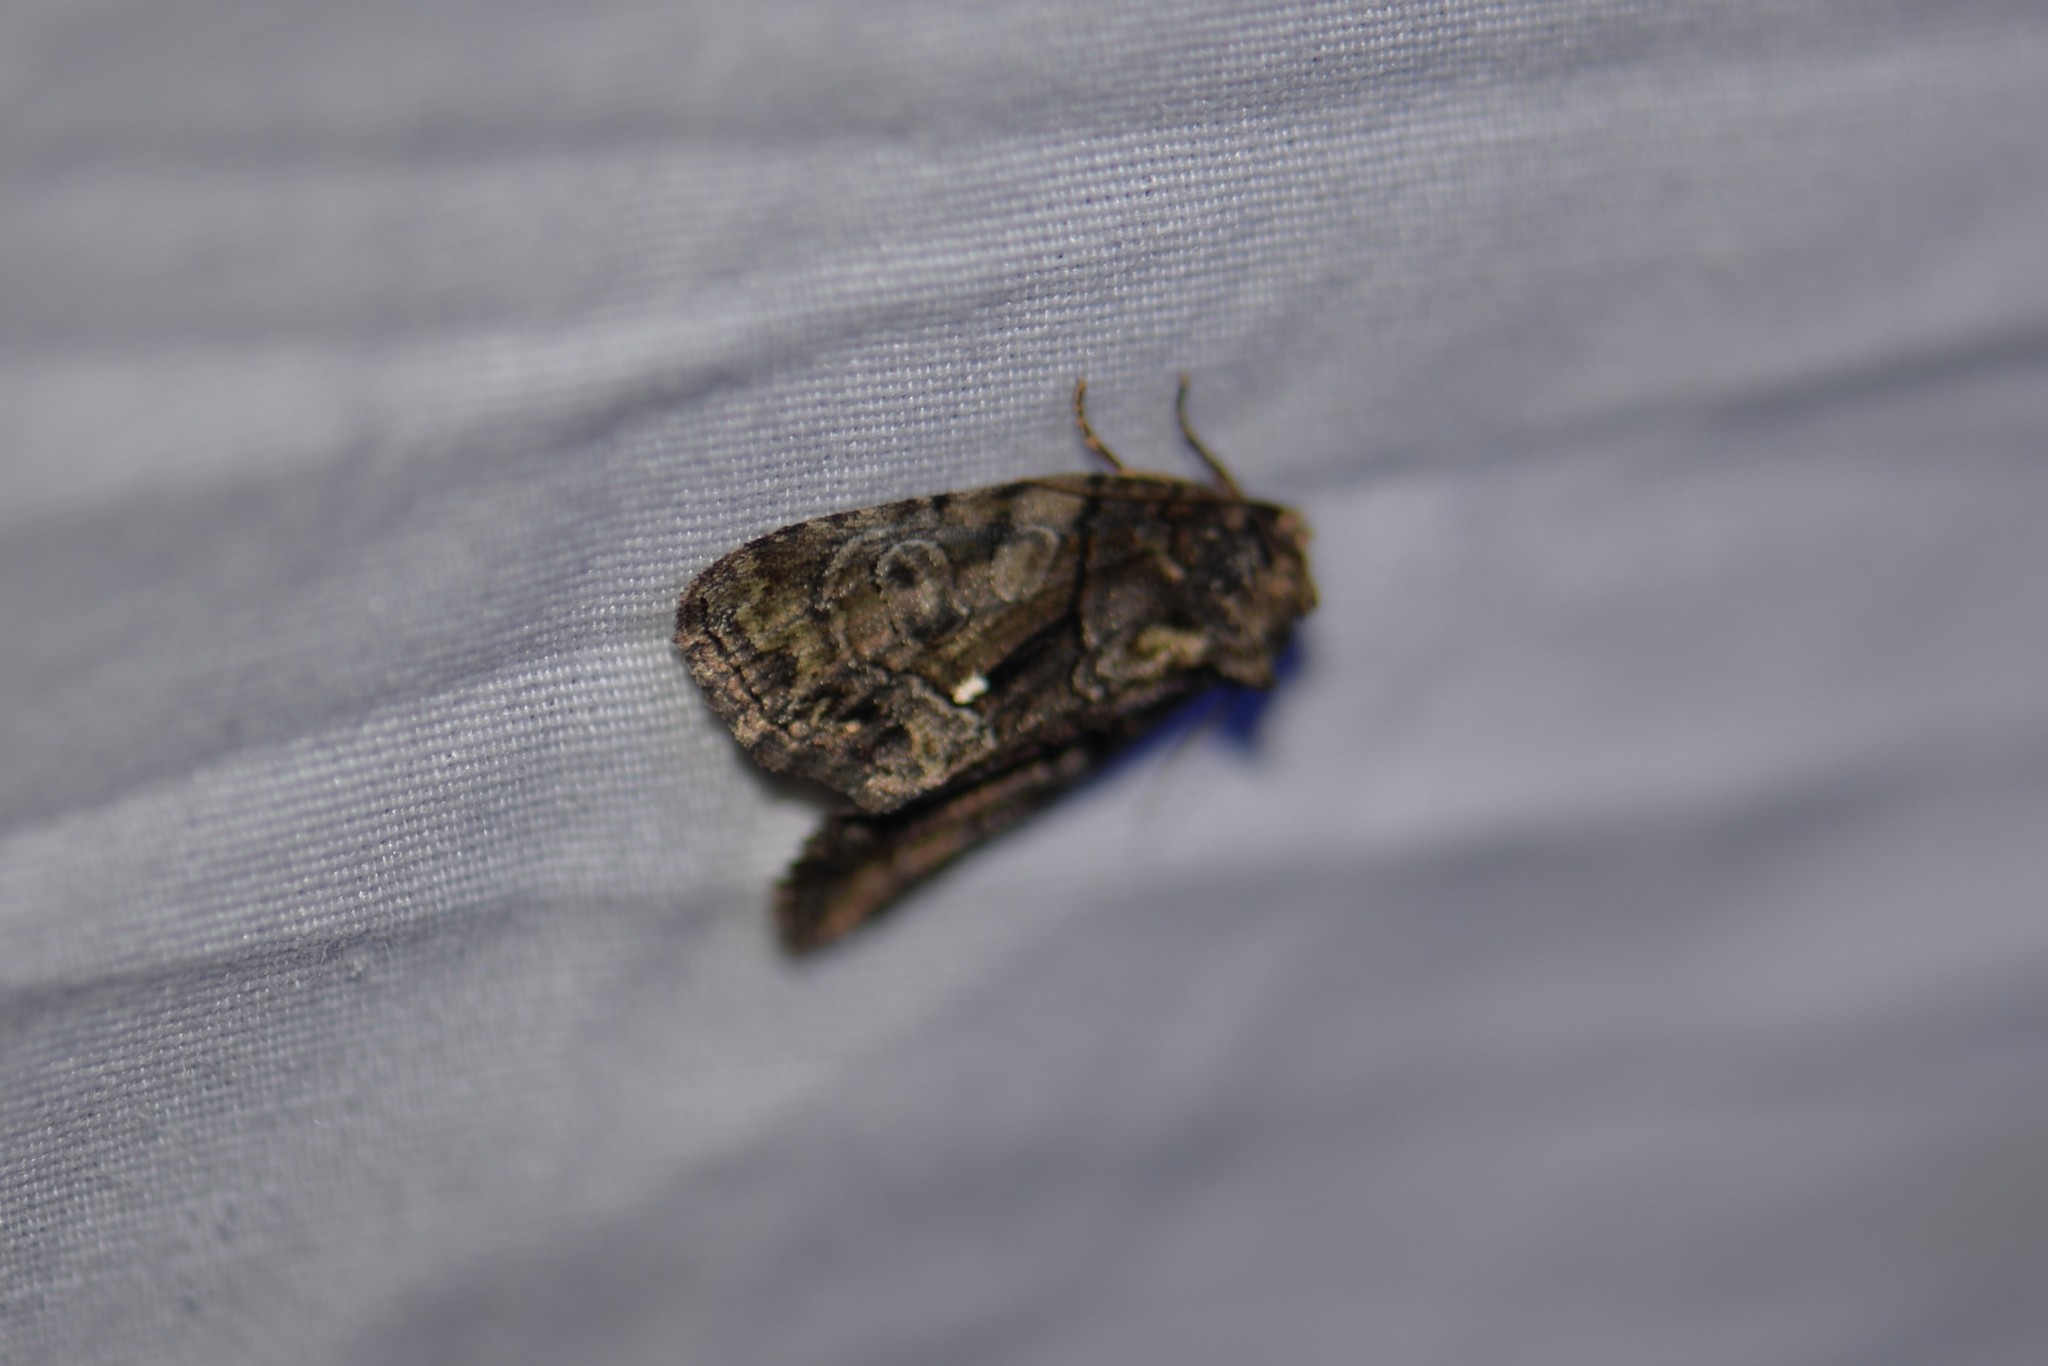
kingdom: Animalia
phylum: Arthropoda
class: Insecta
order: Lepidoptera
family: Noctuidae
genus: Chytonix
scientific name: Chytonix palliatricula
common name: Cloaked marvel
